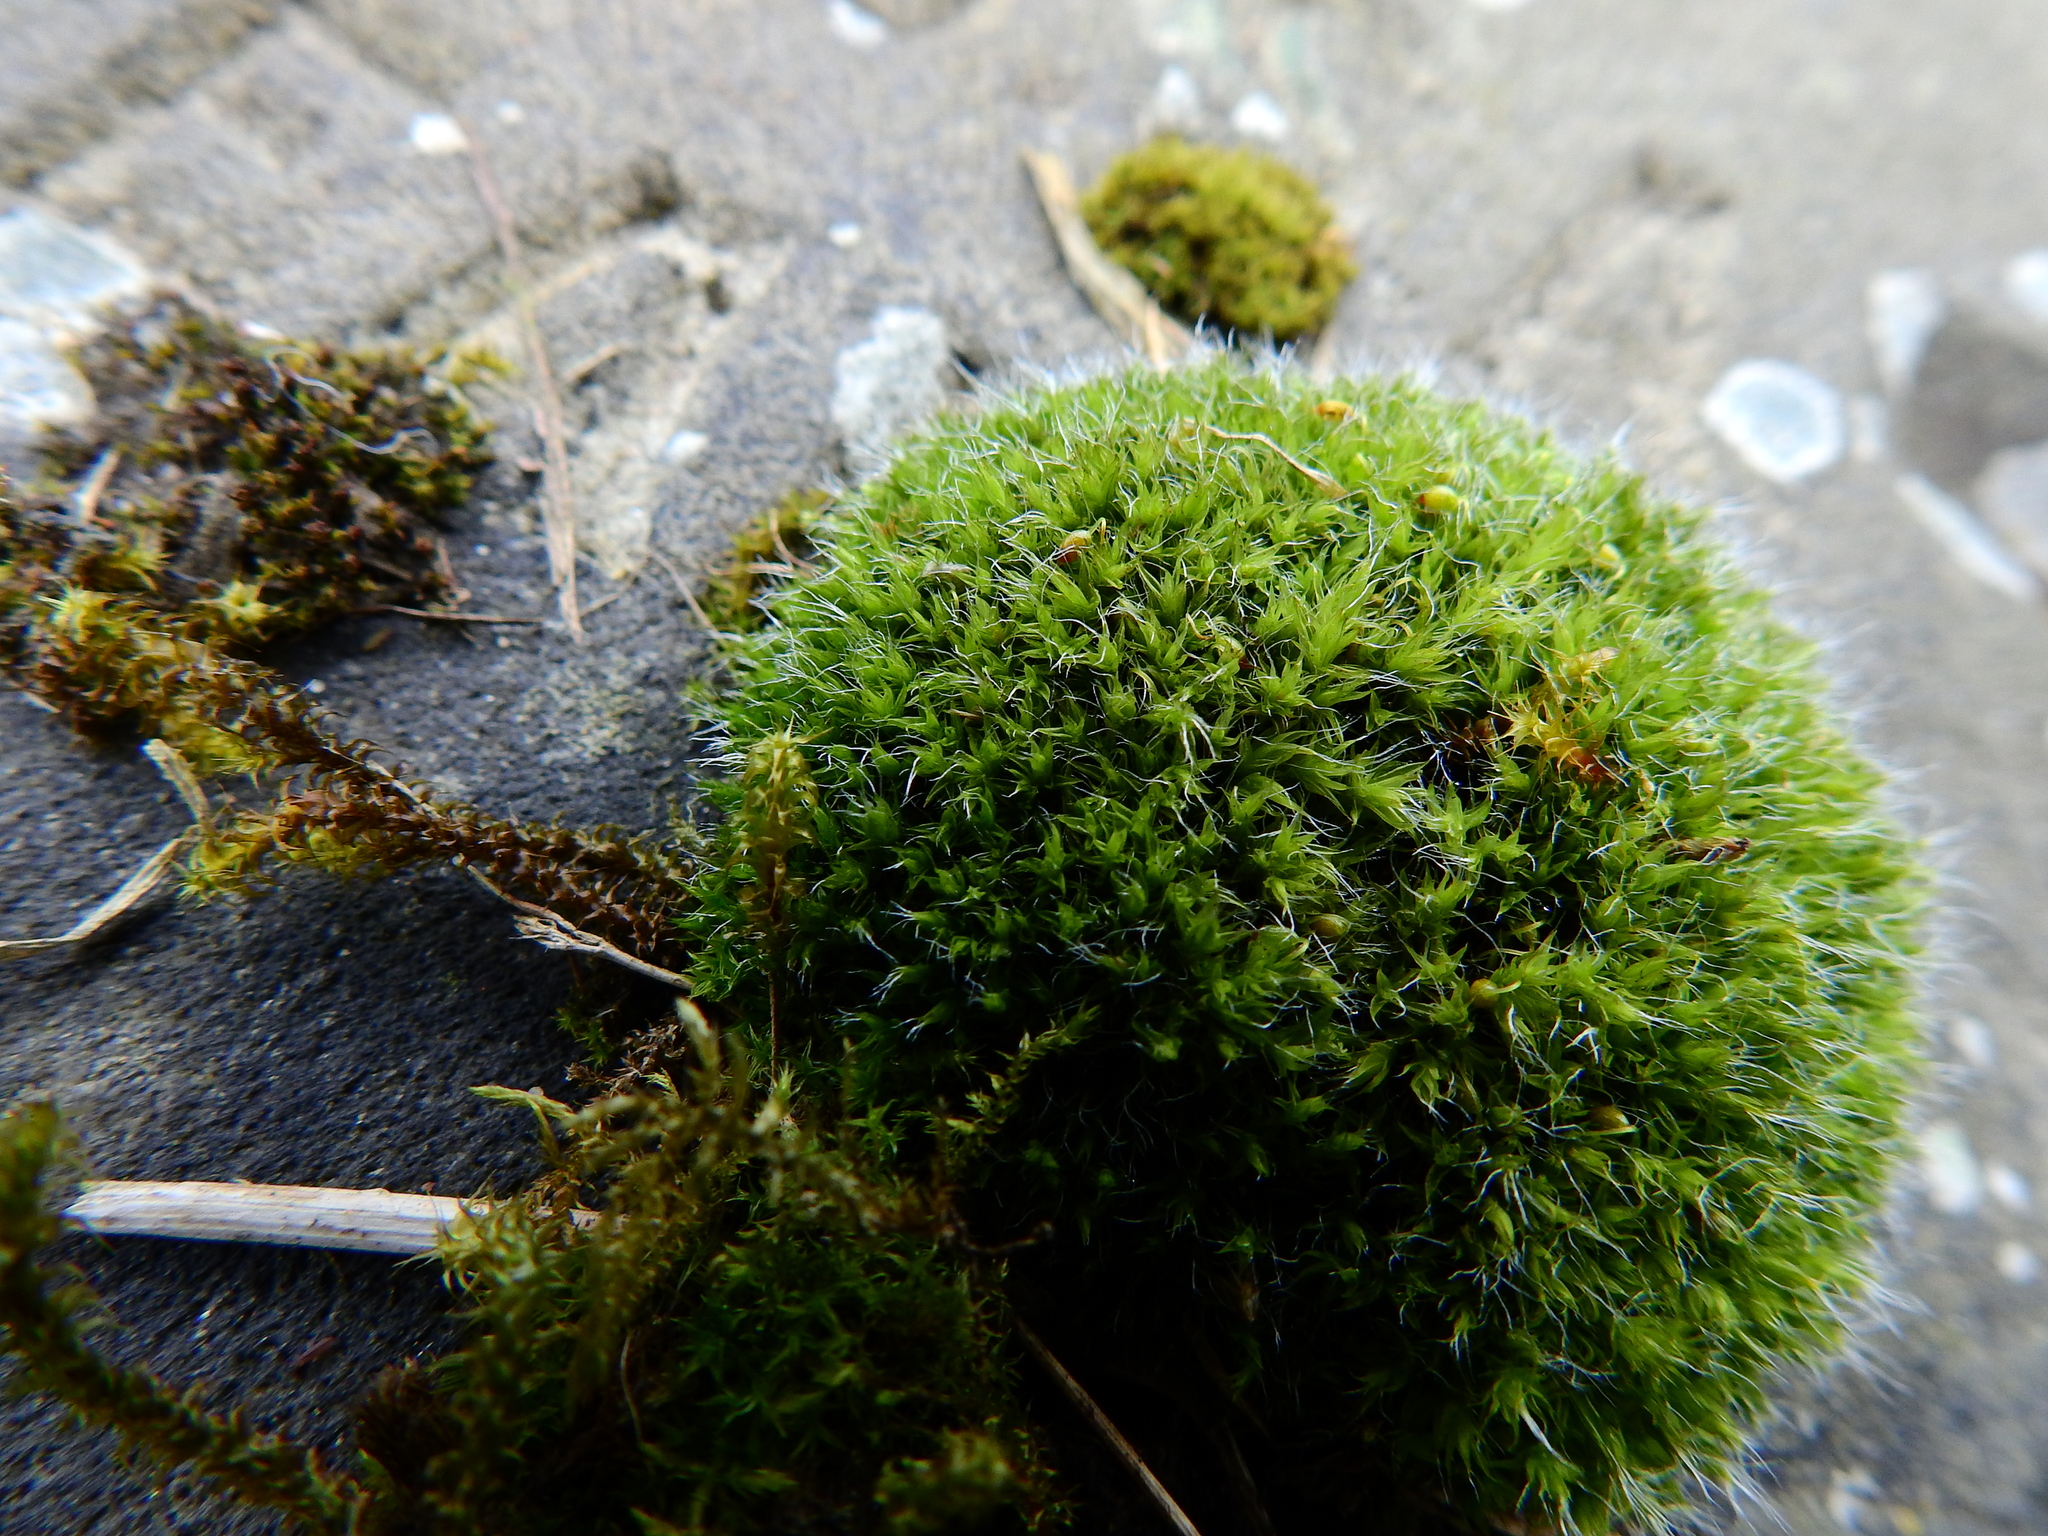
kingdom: Plantae
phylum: Bryophyta
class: Bryopsida
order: Grimmiales
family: Grimmiaceae
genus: Grimmia
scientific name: Grimmia pulvinata
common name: Grey-cushioned grimmia
